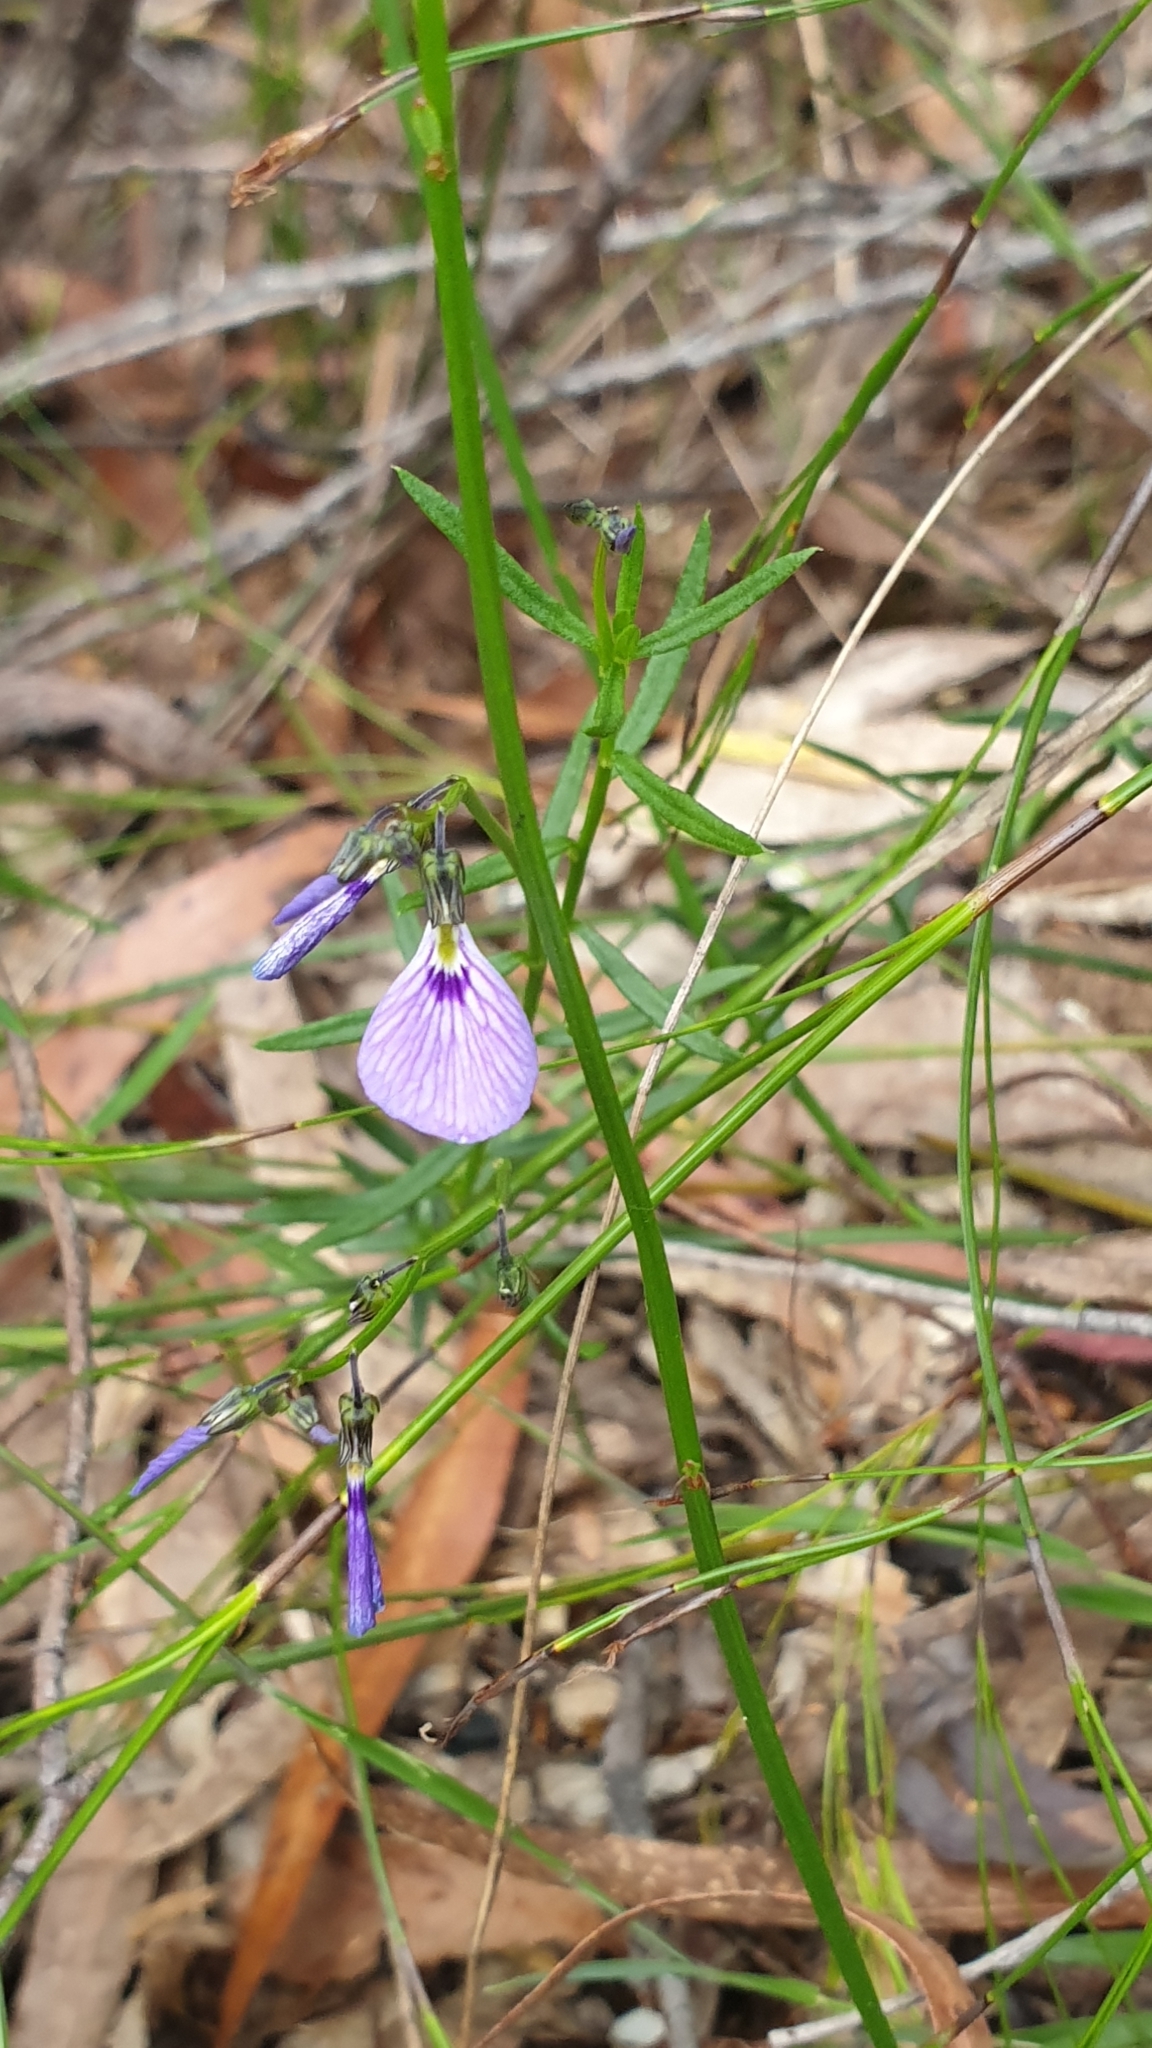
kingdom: Plantae
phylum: Tracheophyta
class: Magnoliopsida
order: Malpighiales
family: Violaceae
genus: Pigea
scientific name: Pigea monopetala
